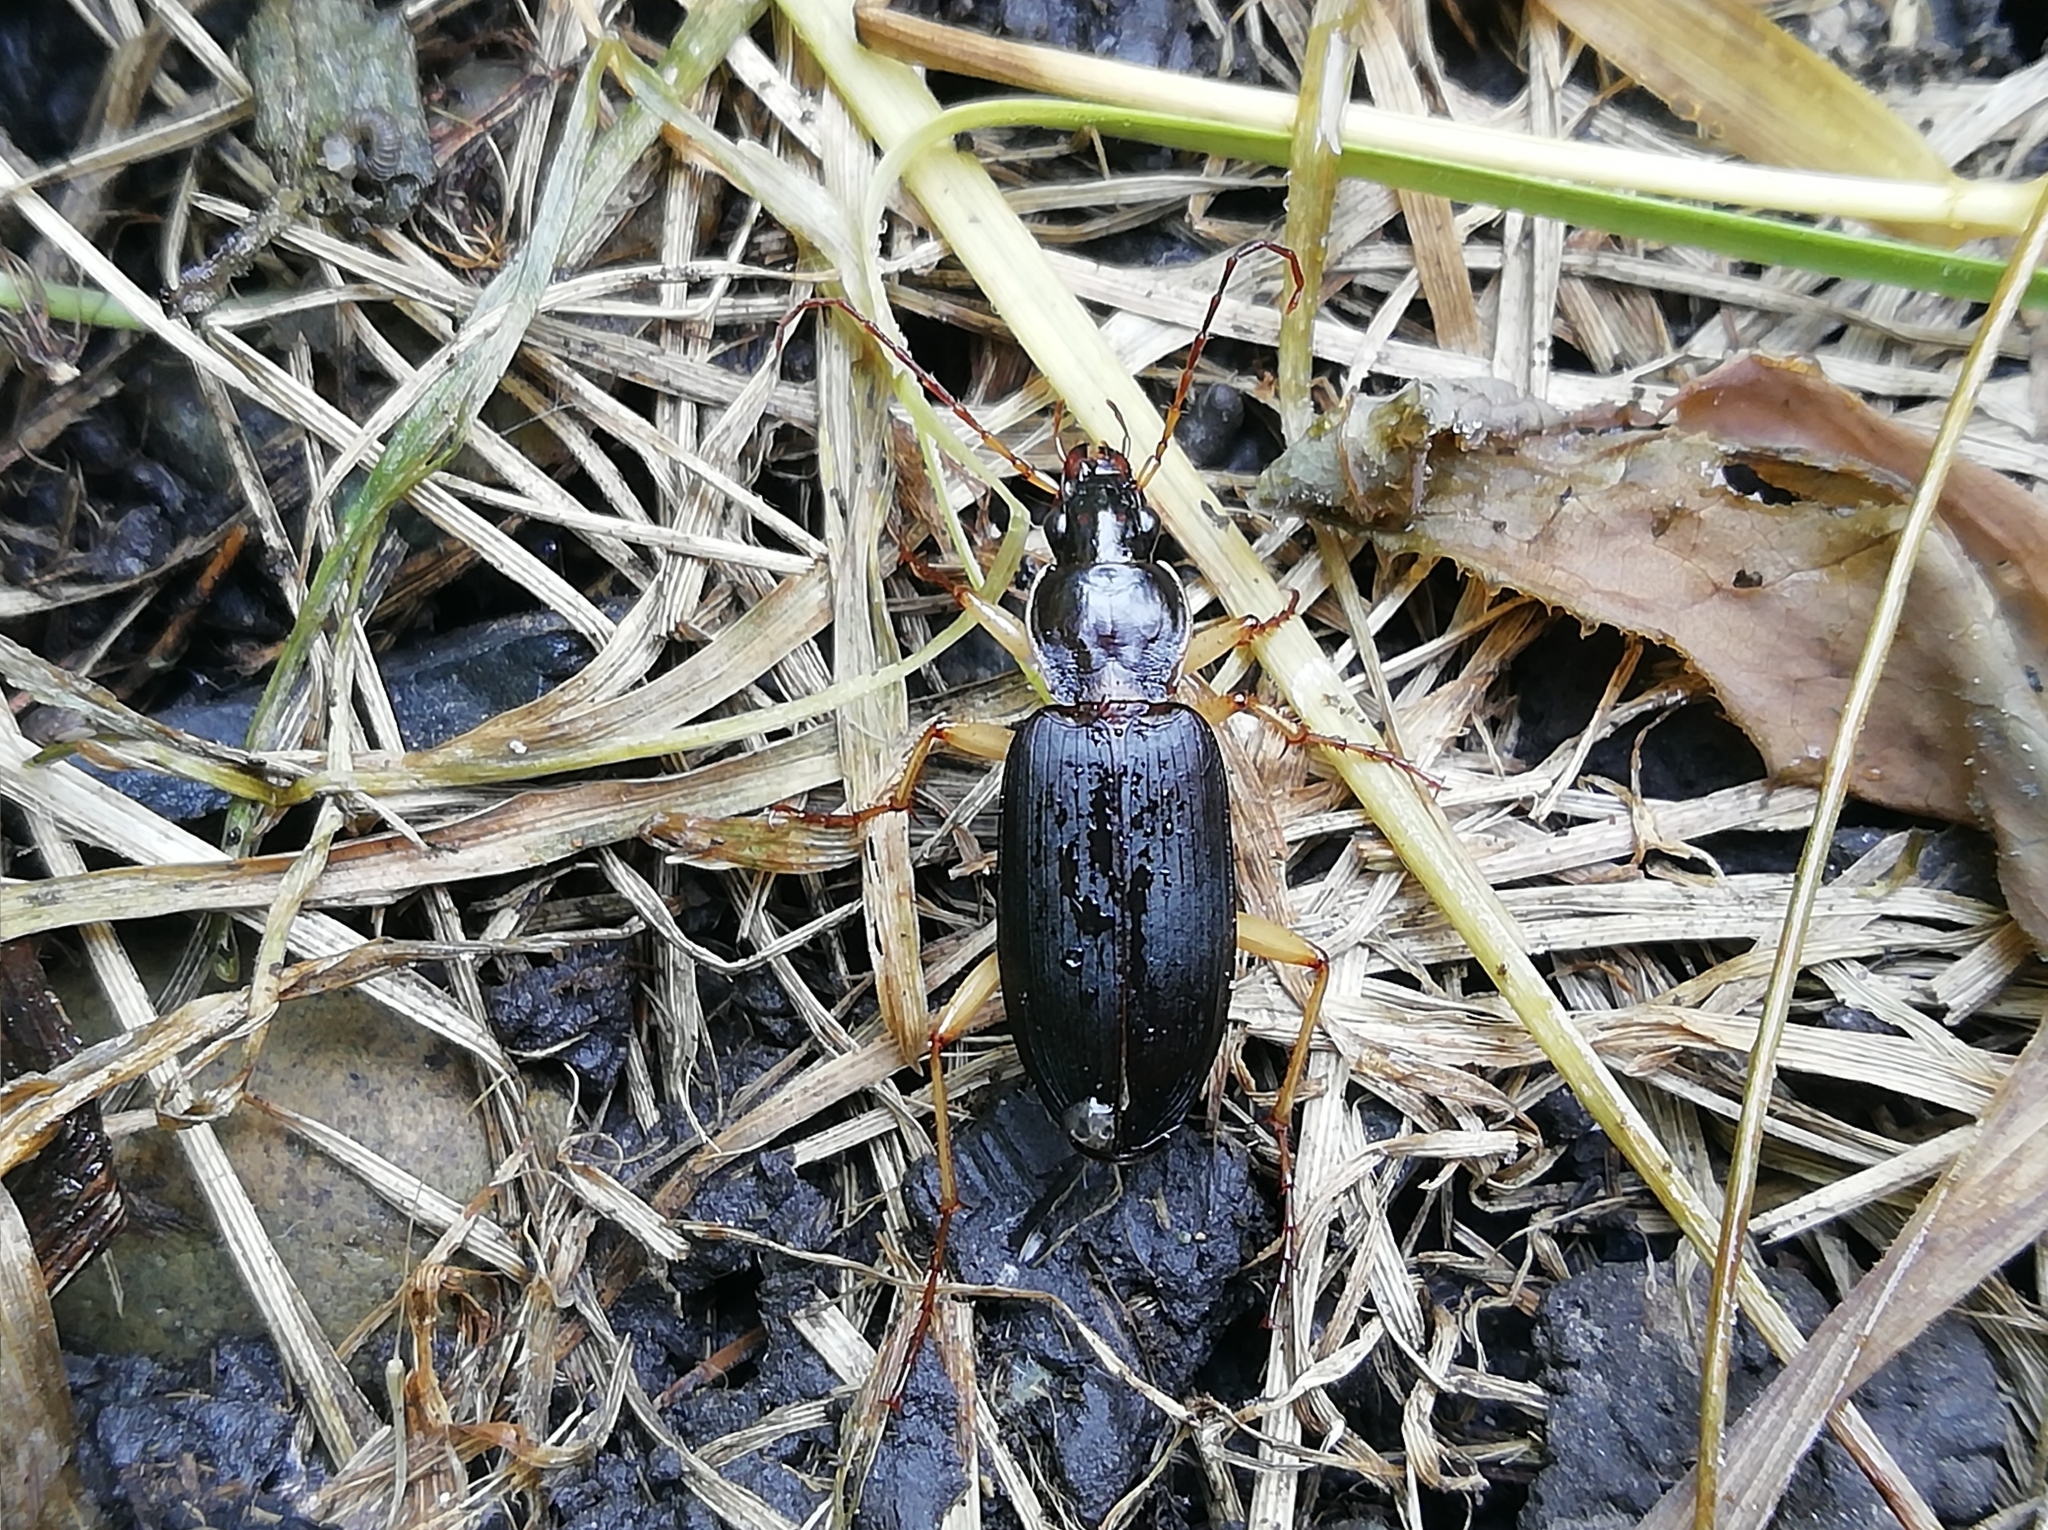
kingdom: Animalia
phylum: Arthropoda
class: Insecta
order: Coleoptera
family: Carabidae
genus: Dolichus
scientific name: Dolichus halensis
